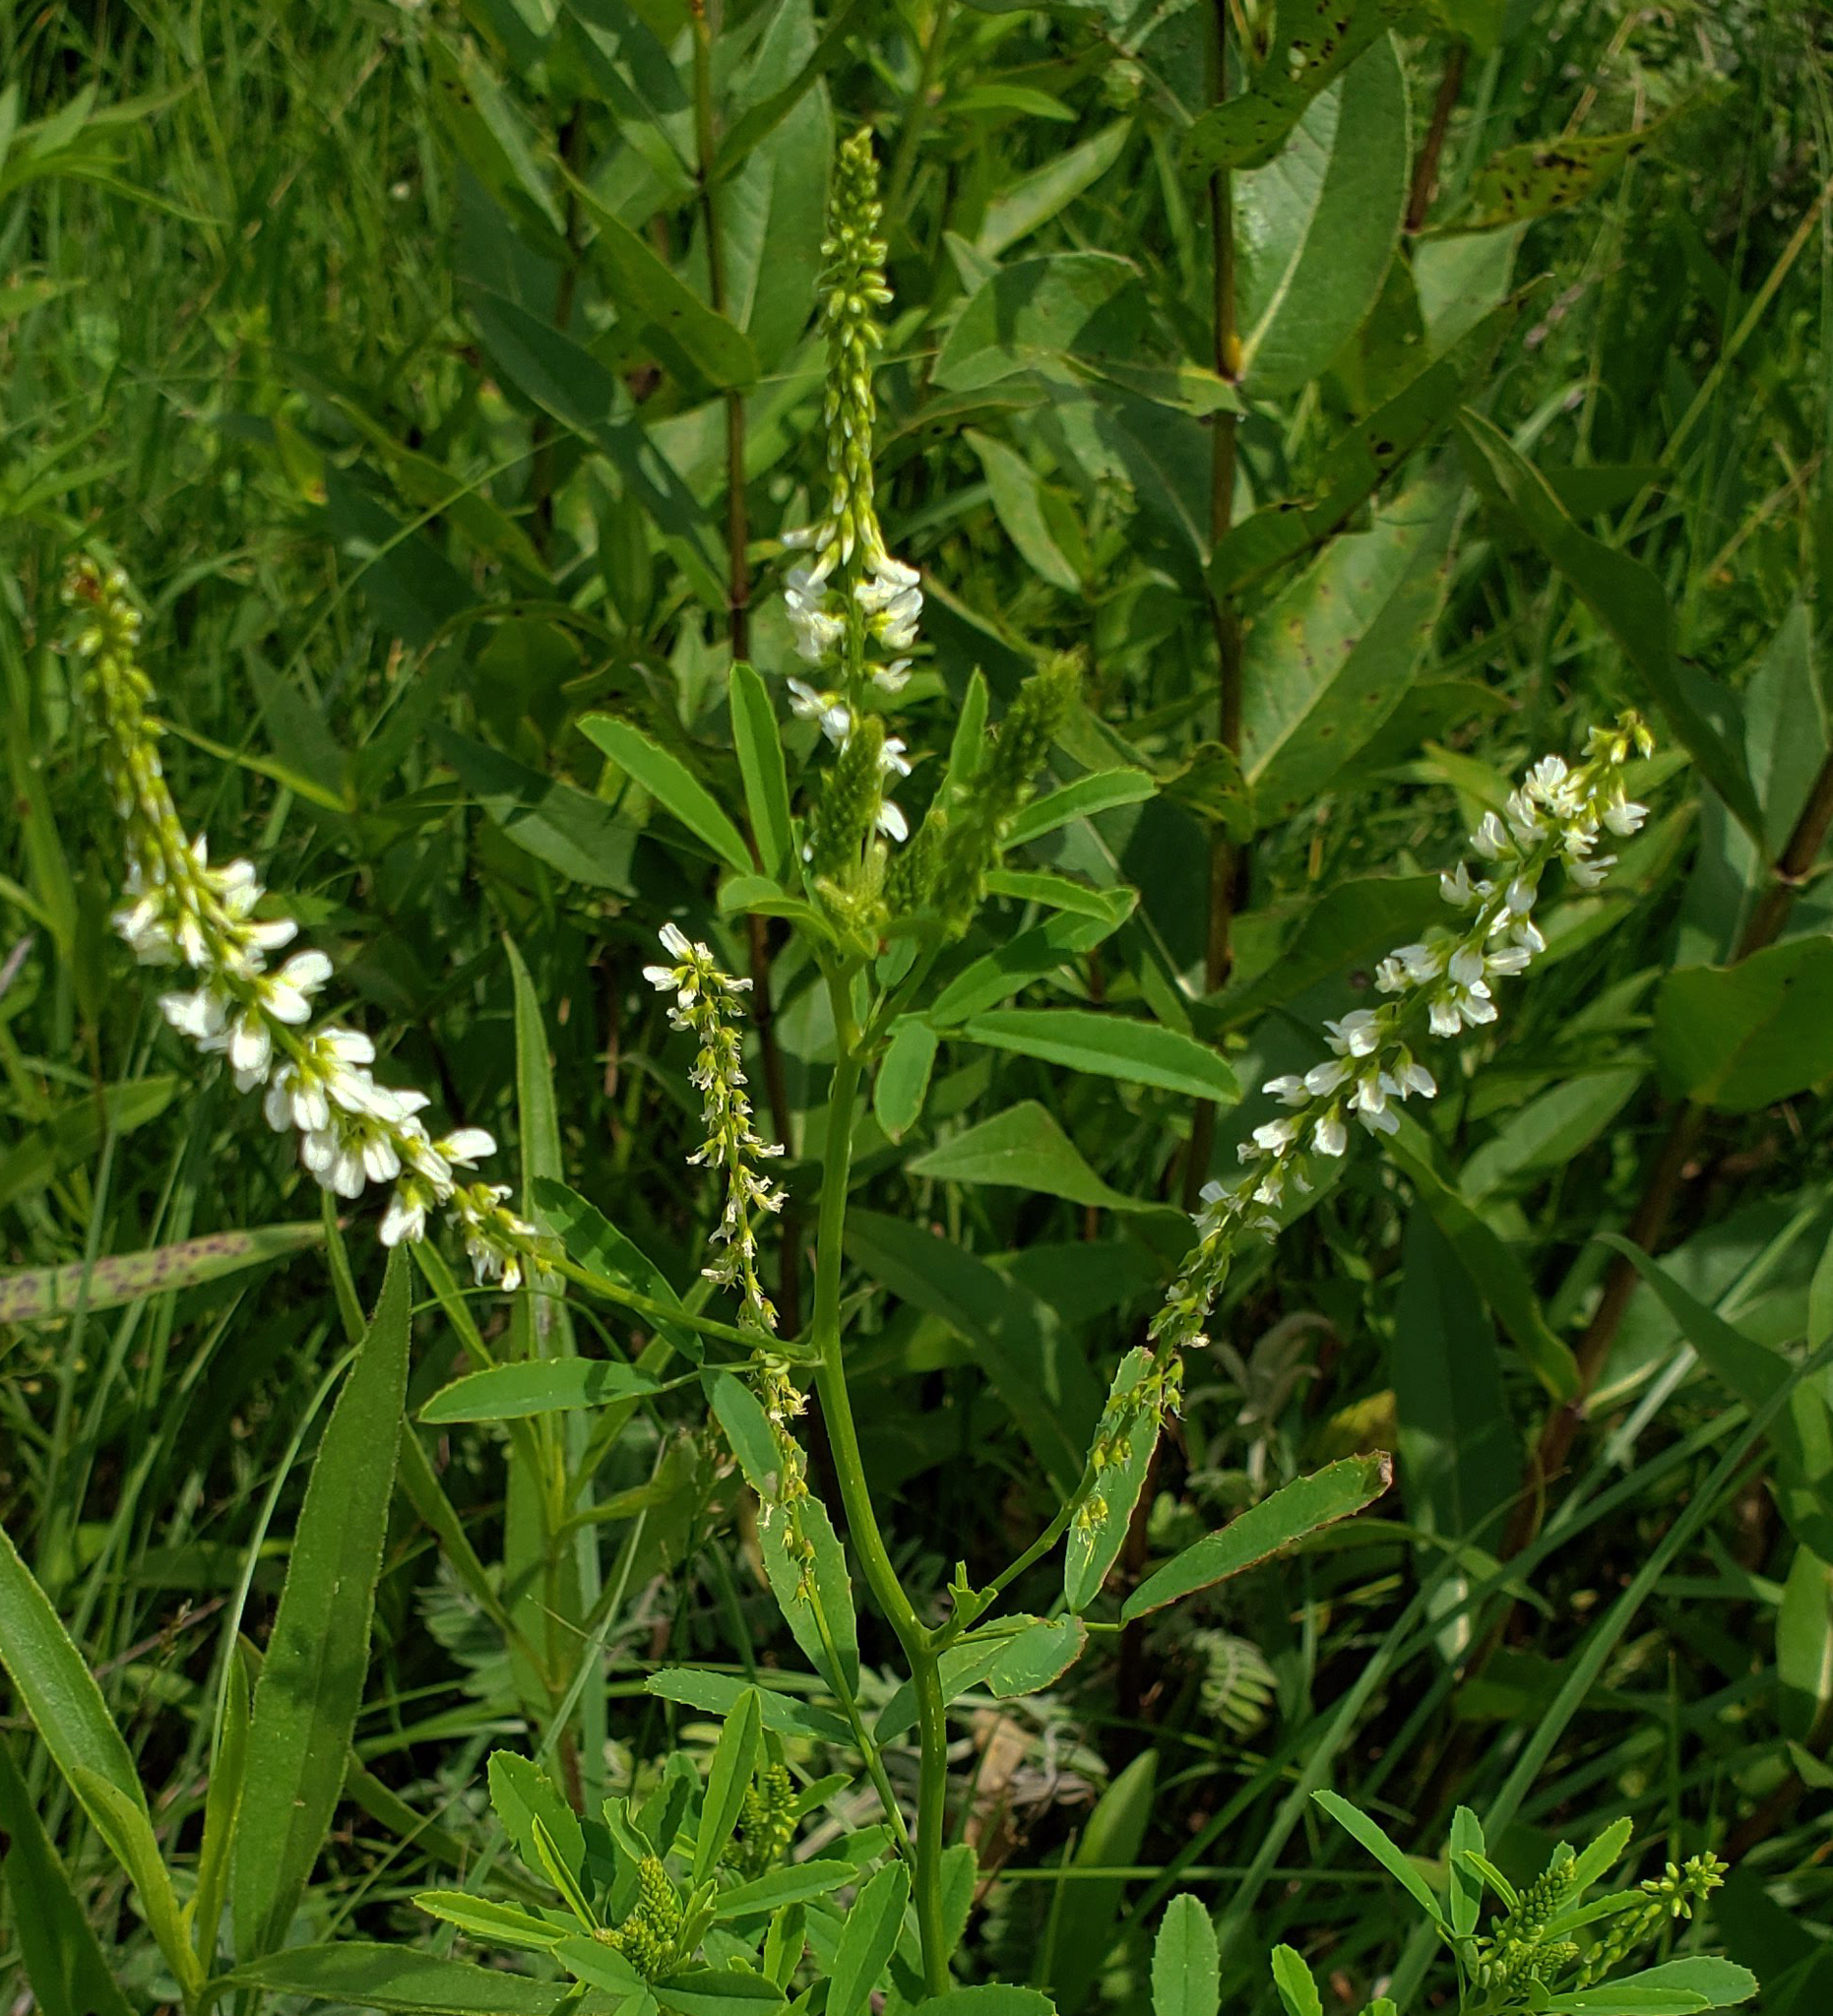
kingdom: Plantae
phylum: Tracheophyta
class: Magnoliopsida
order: Fabales
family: Fabaceae
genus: Melilotus
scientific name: Melilotus albus
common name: White melilot
